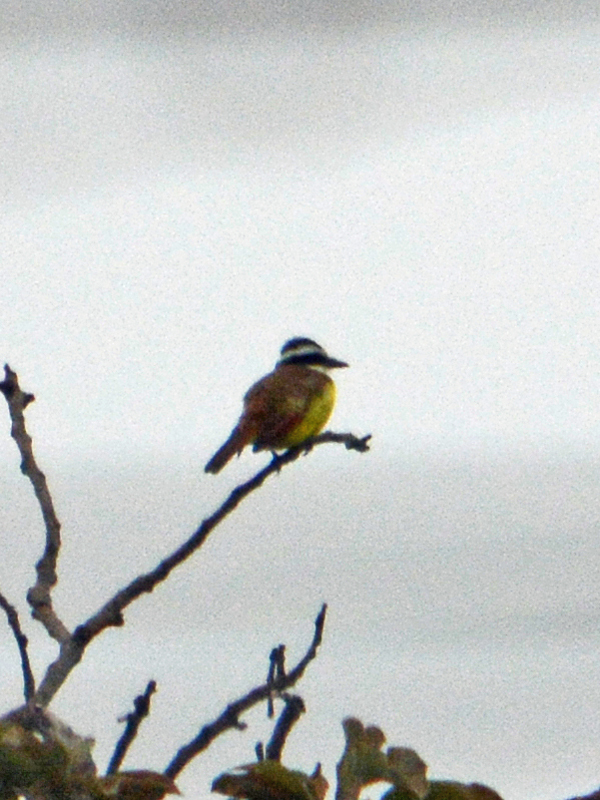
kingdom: Animalia
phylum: Chordata
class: Aves
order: Passeriformes
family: Tyrannidae
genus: Pitangus
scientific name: Pitangus sulphuratus
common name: Great kiskadee
